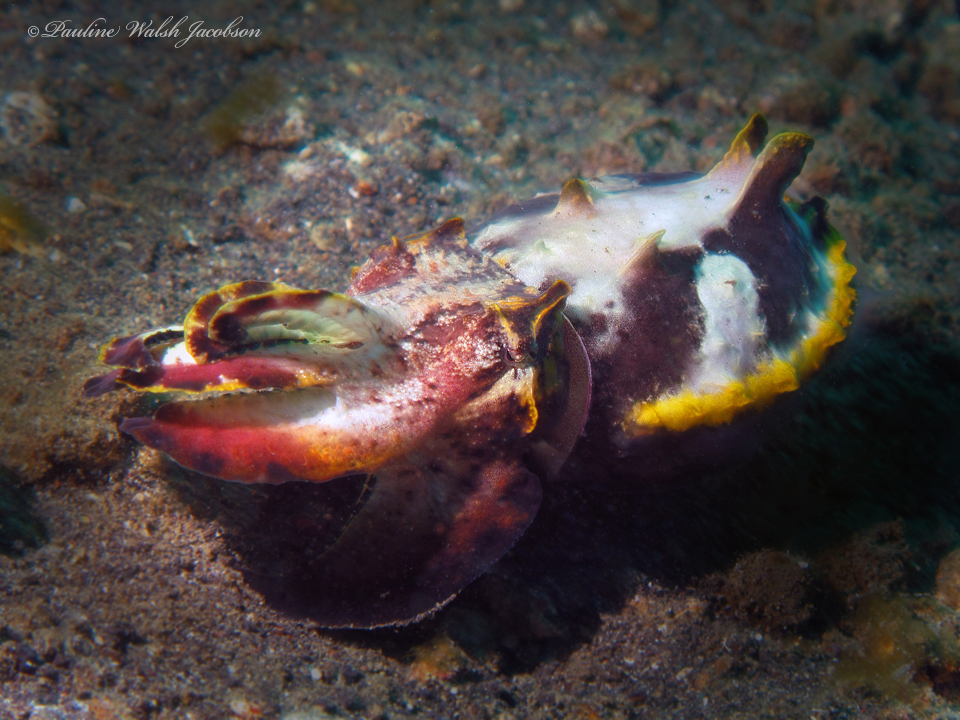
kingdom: Animalia
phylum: Mollusca
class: Cephalopoda
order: Sepiida
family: Sepiidae
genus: Ascarosepion
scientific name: Ascarosepion pfefferi
